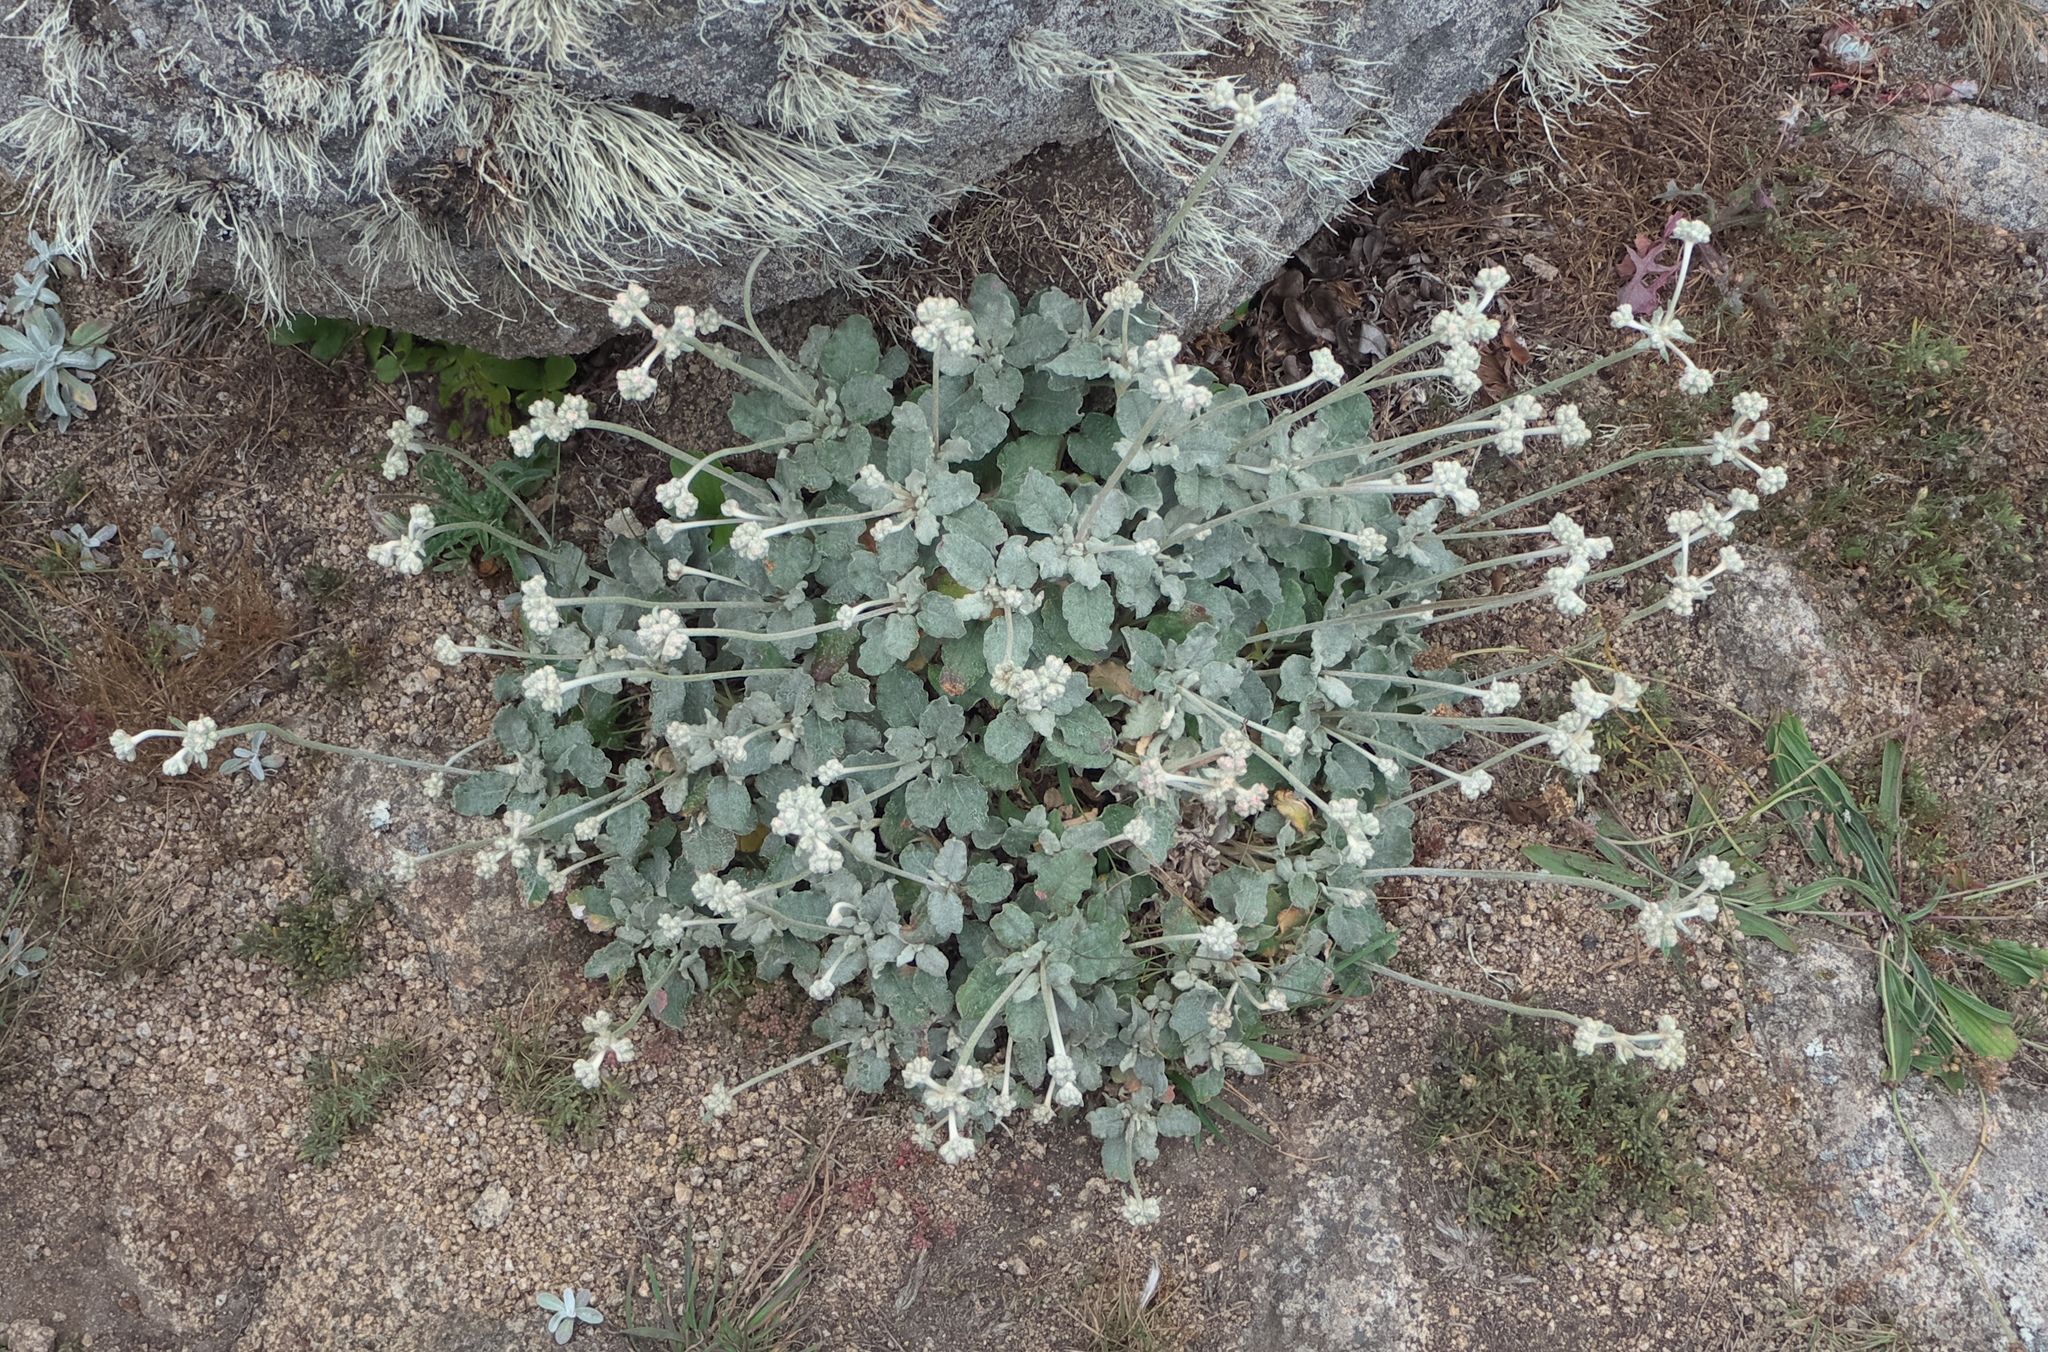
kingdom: Plantae
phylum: Tracheophyta
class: Magnoliopsida
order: Caryophyllales
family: Polygonaceae
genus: Eriogonum
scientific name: Eriogonum latifolium
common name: Seaside wild buckwheat
